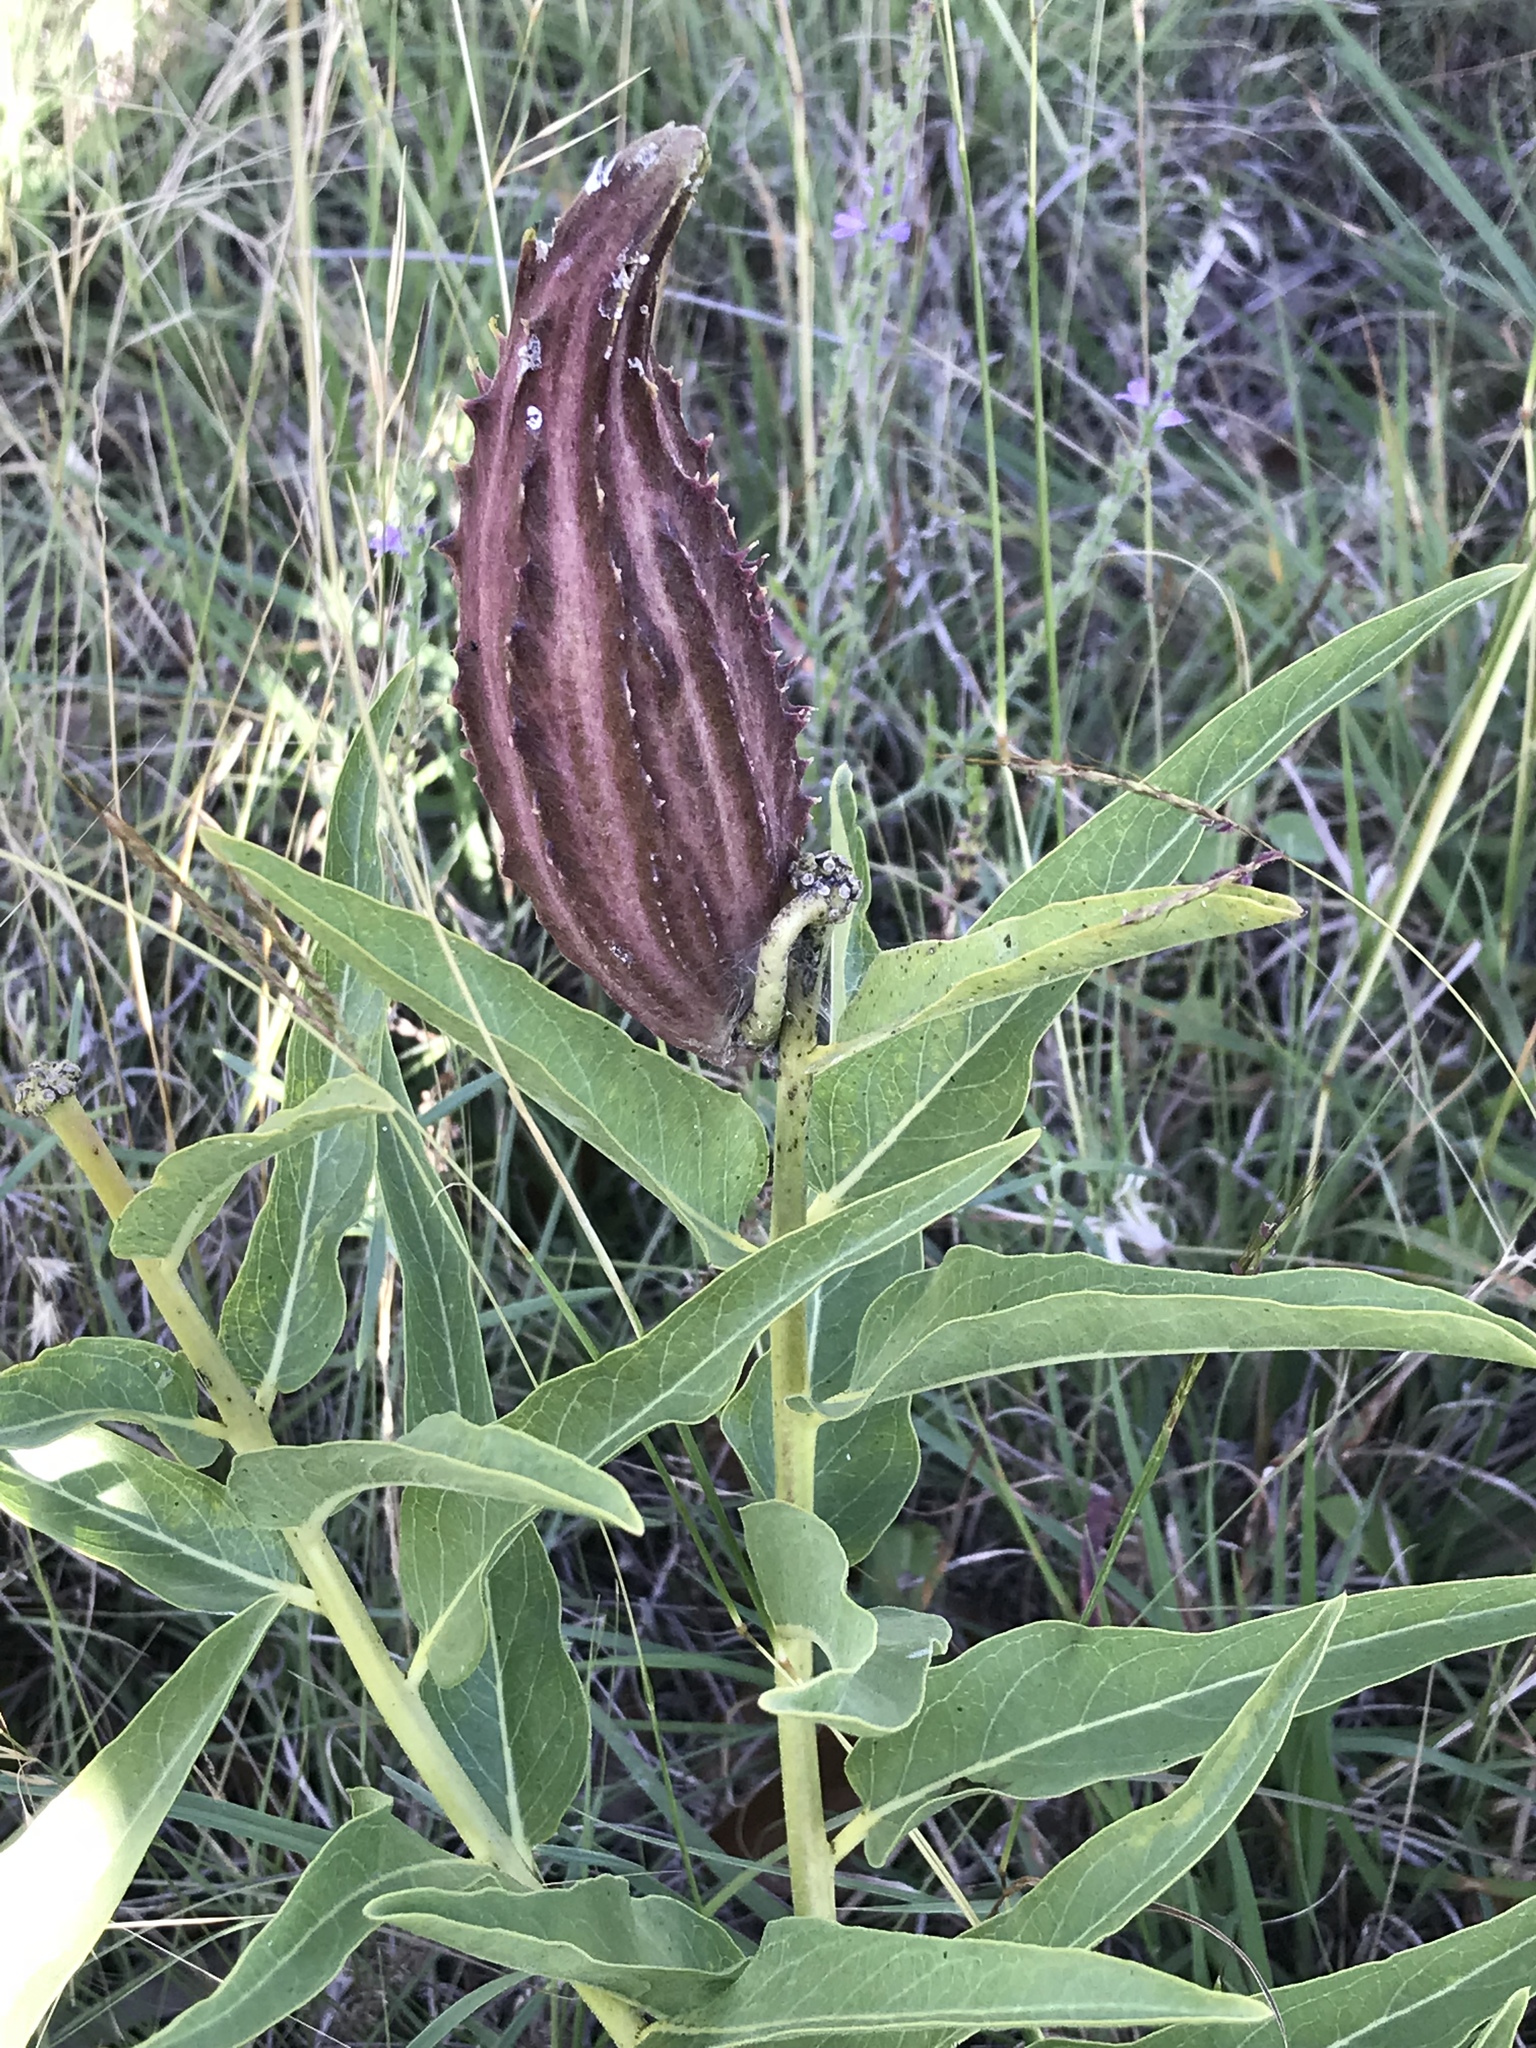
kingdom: Plantae
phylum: Tracheophyta
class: Magnoliopsida
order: Gentianales
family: Apocynaceae
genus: Asclepias
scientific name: Asclepias asperula
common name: Antelope horns
